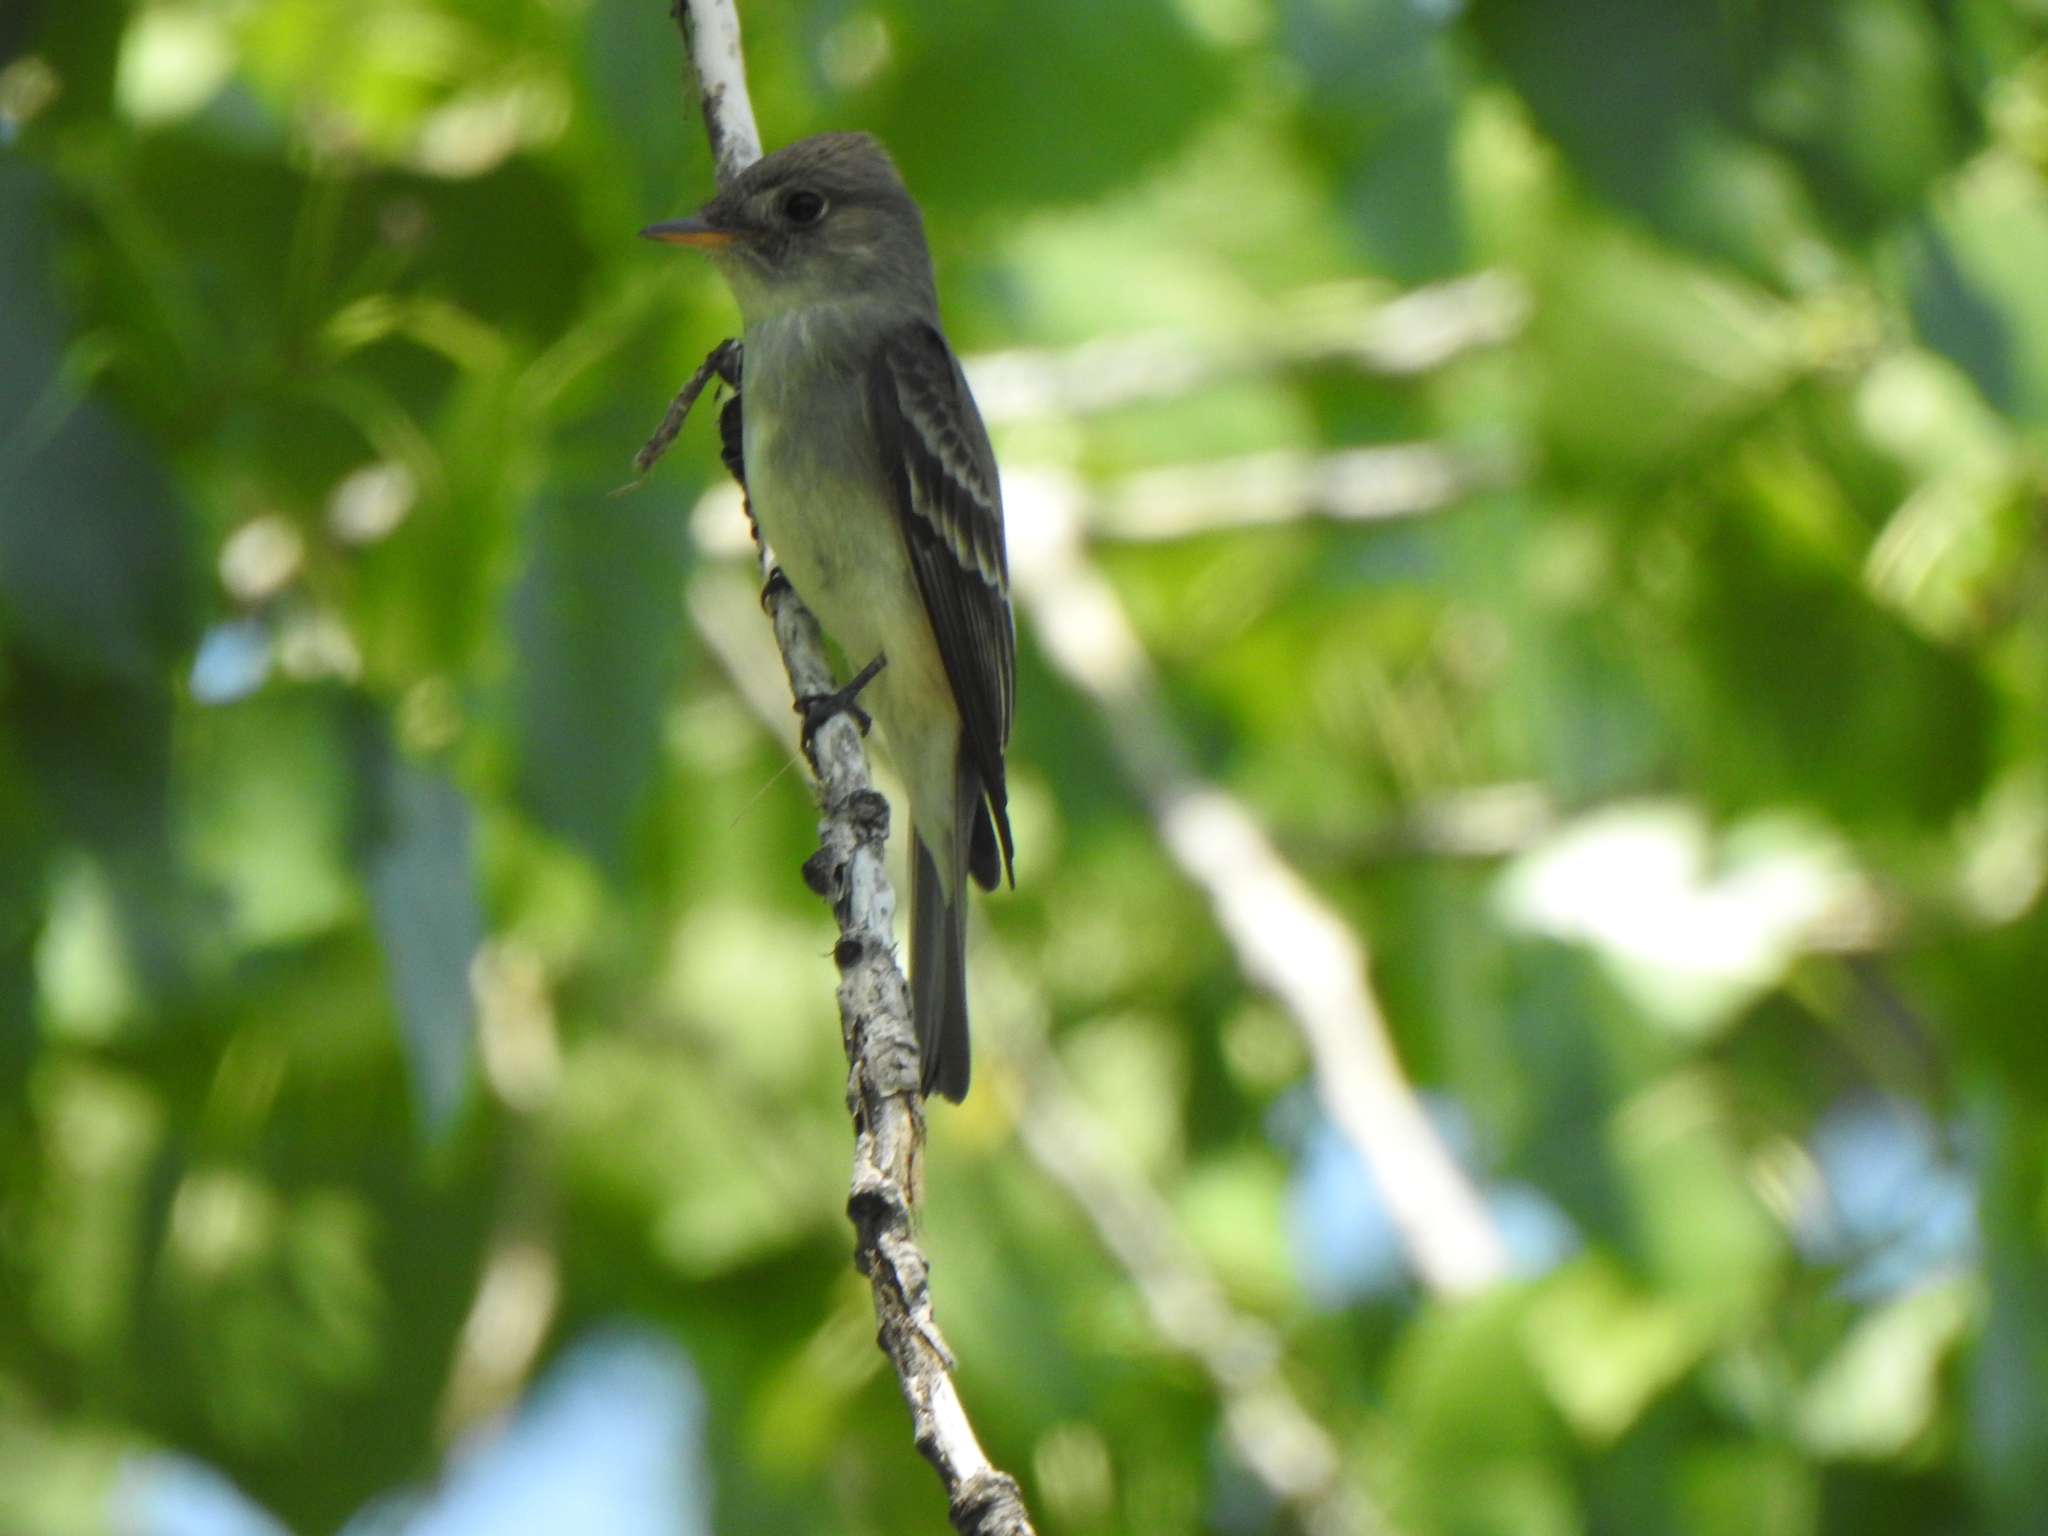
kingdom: Animalia
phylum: Chordata
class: Aves
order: Passeriformes
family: Tyrannidae
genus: Contopus
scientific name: Contopus virens
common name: Eastern wood-pewee
